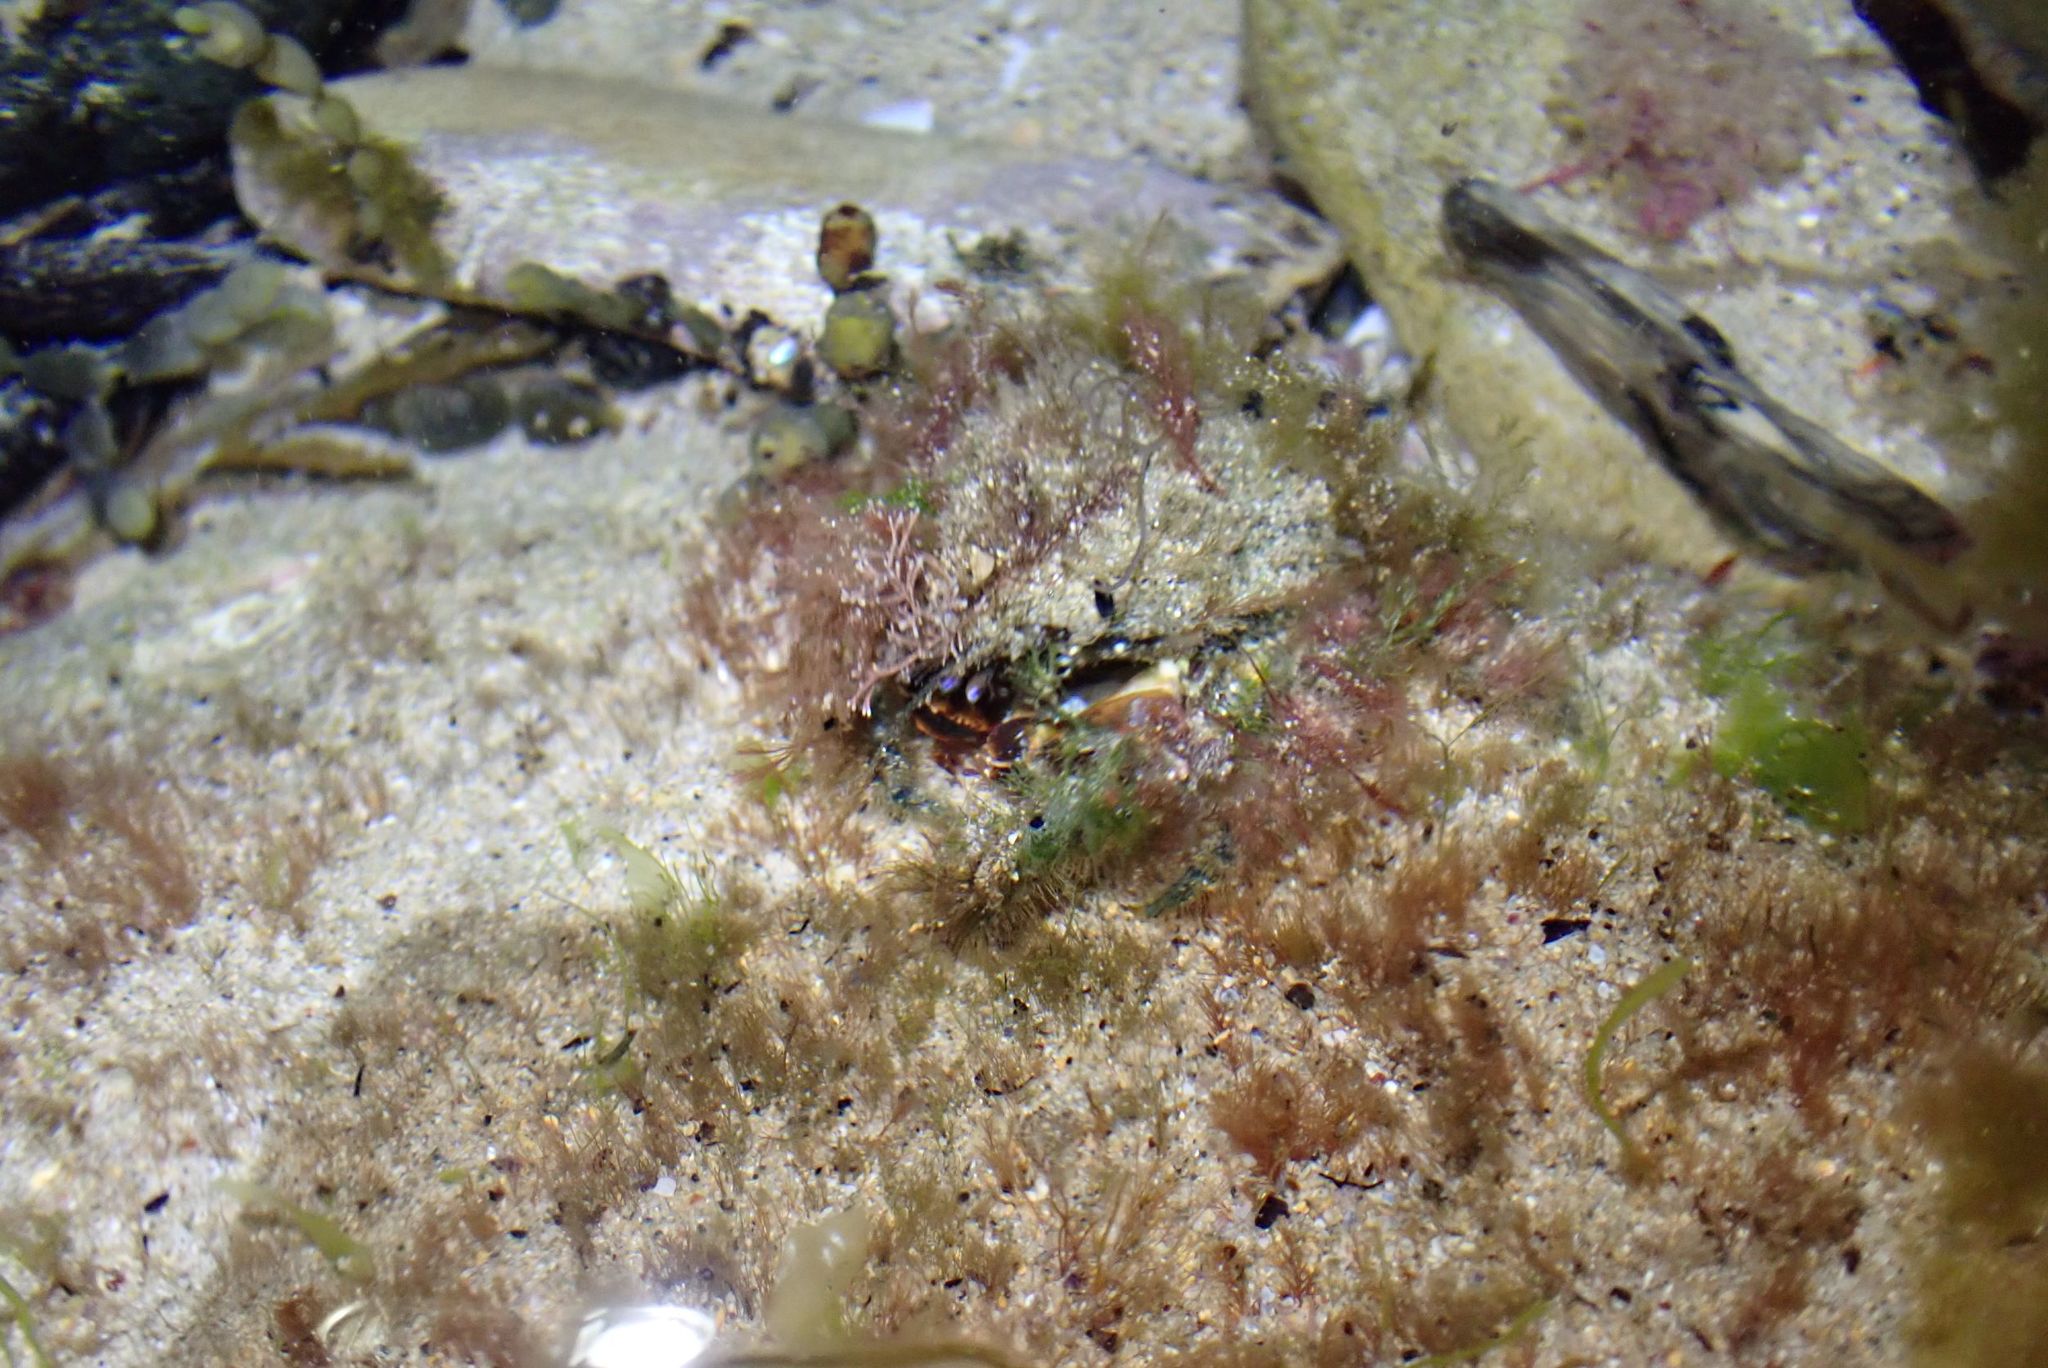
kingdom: Animalia
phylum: Arthropoda
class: Malacostraca
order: Decapoda
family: Majidae
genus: Notomithrax
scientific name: Notomithrax ursus
